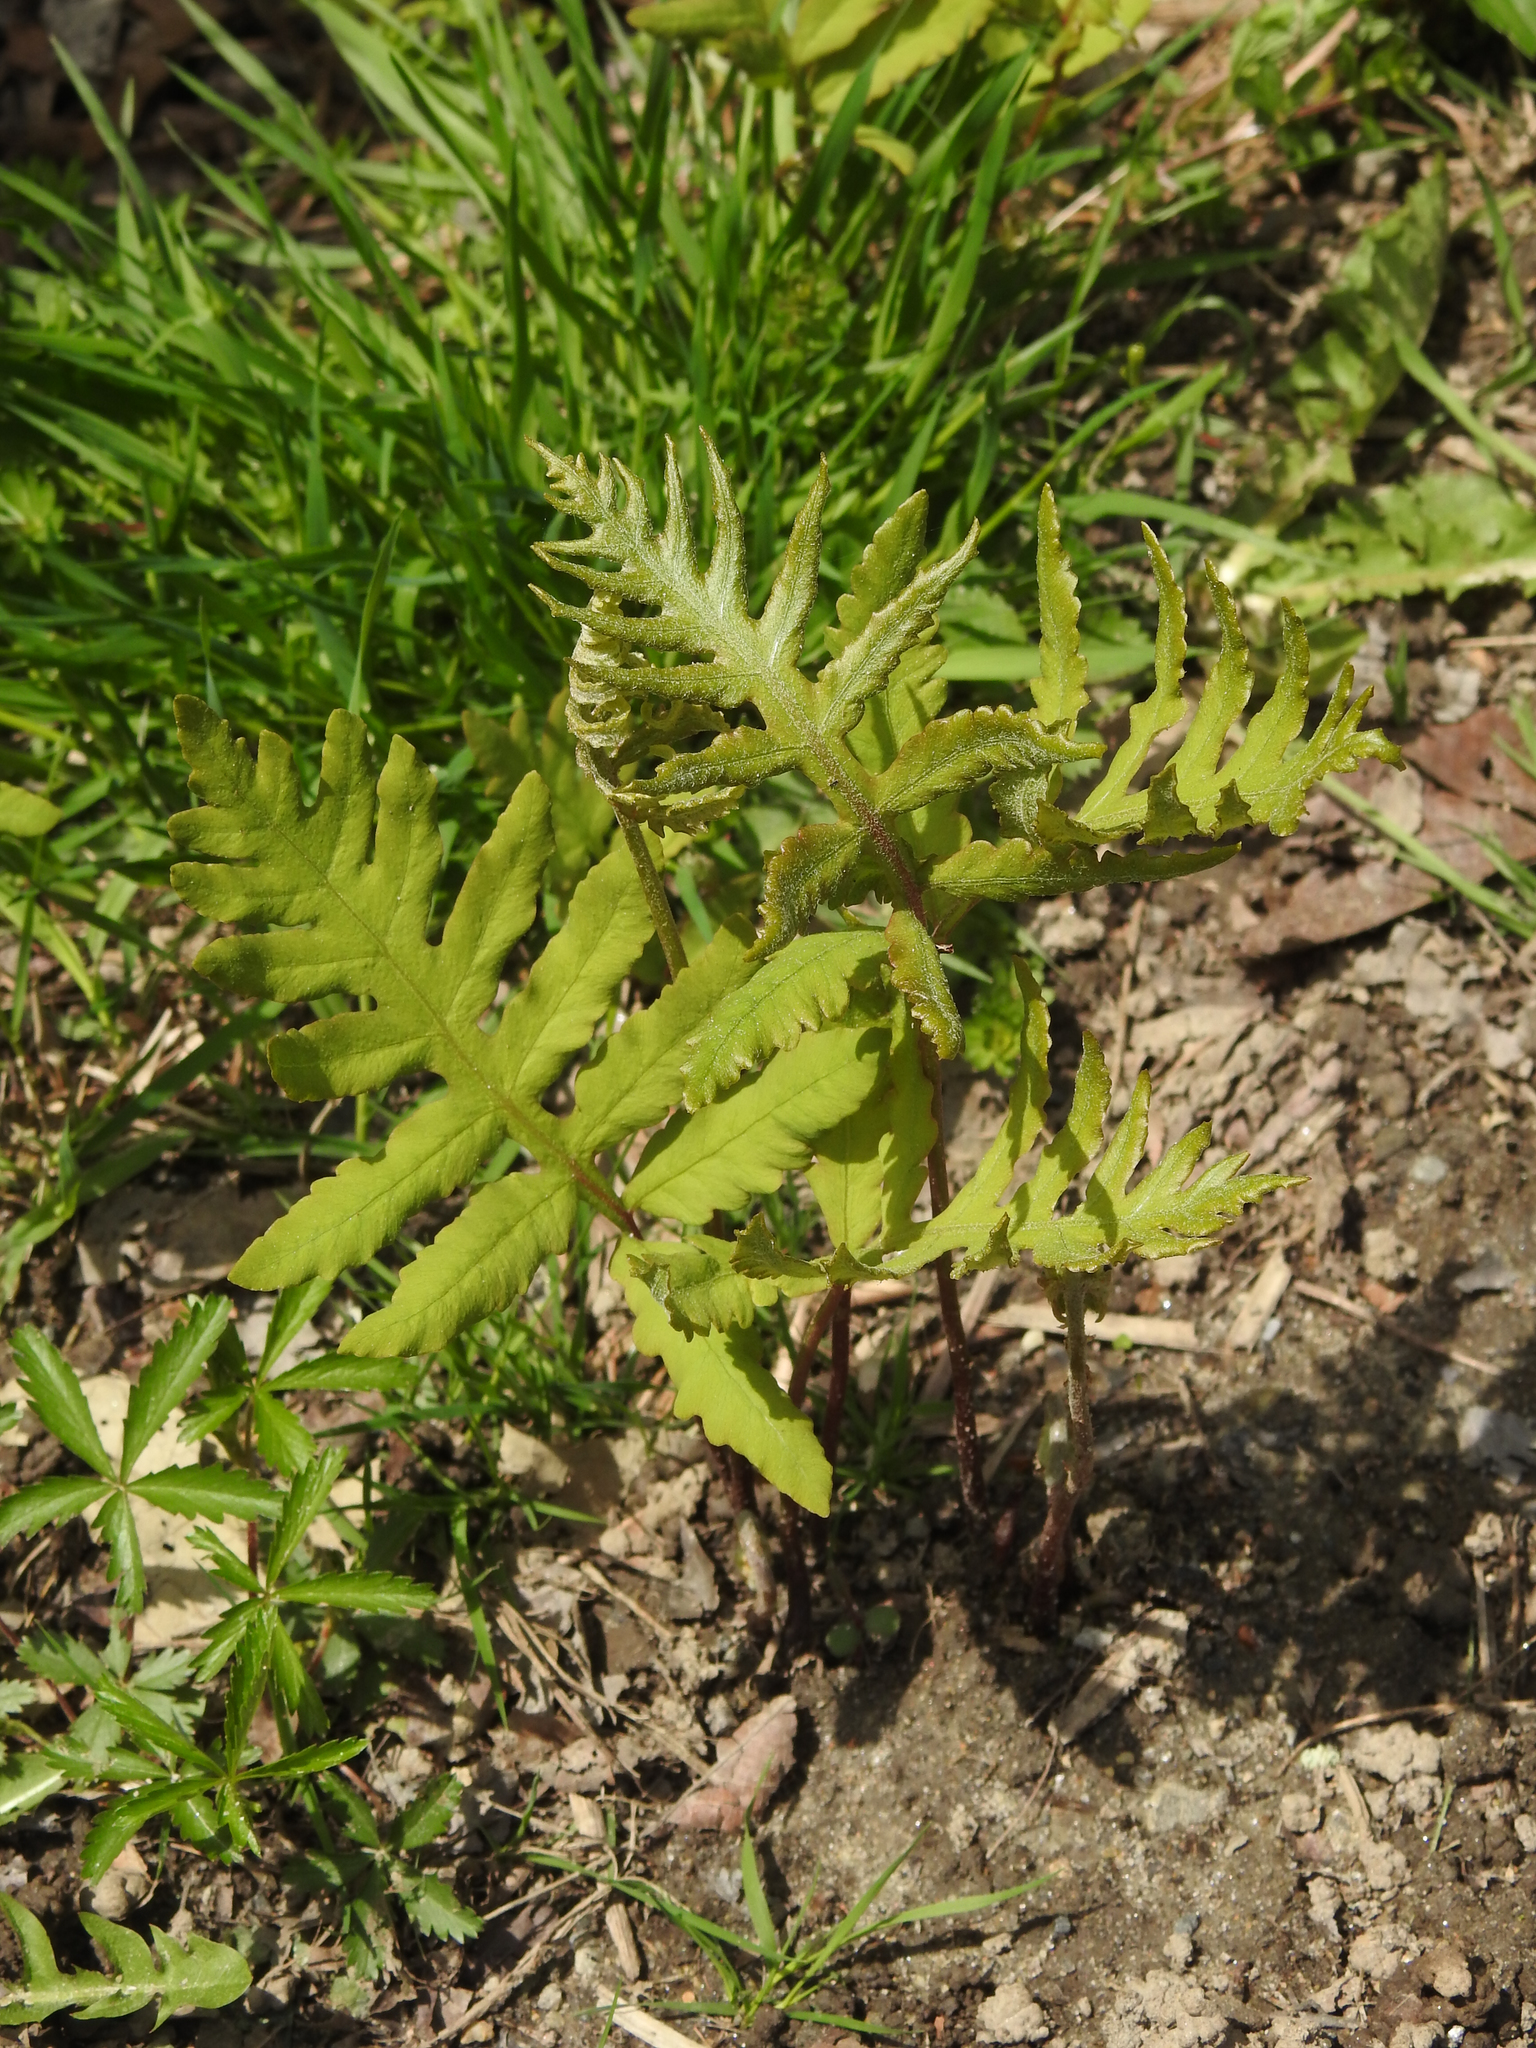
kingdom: Plantae
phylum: Tracheophyta
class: Polypodiopsida
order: Polypodiales
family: Onocleaceae
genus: Onoclea
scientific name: Onoclea sensibilis
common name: Sensitive fern
